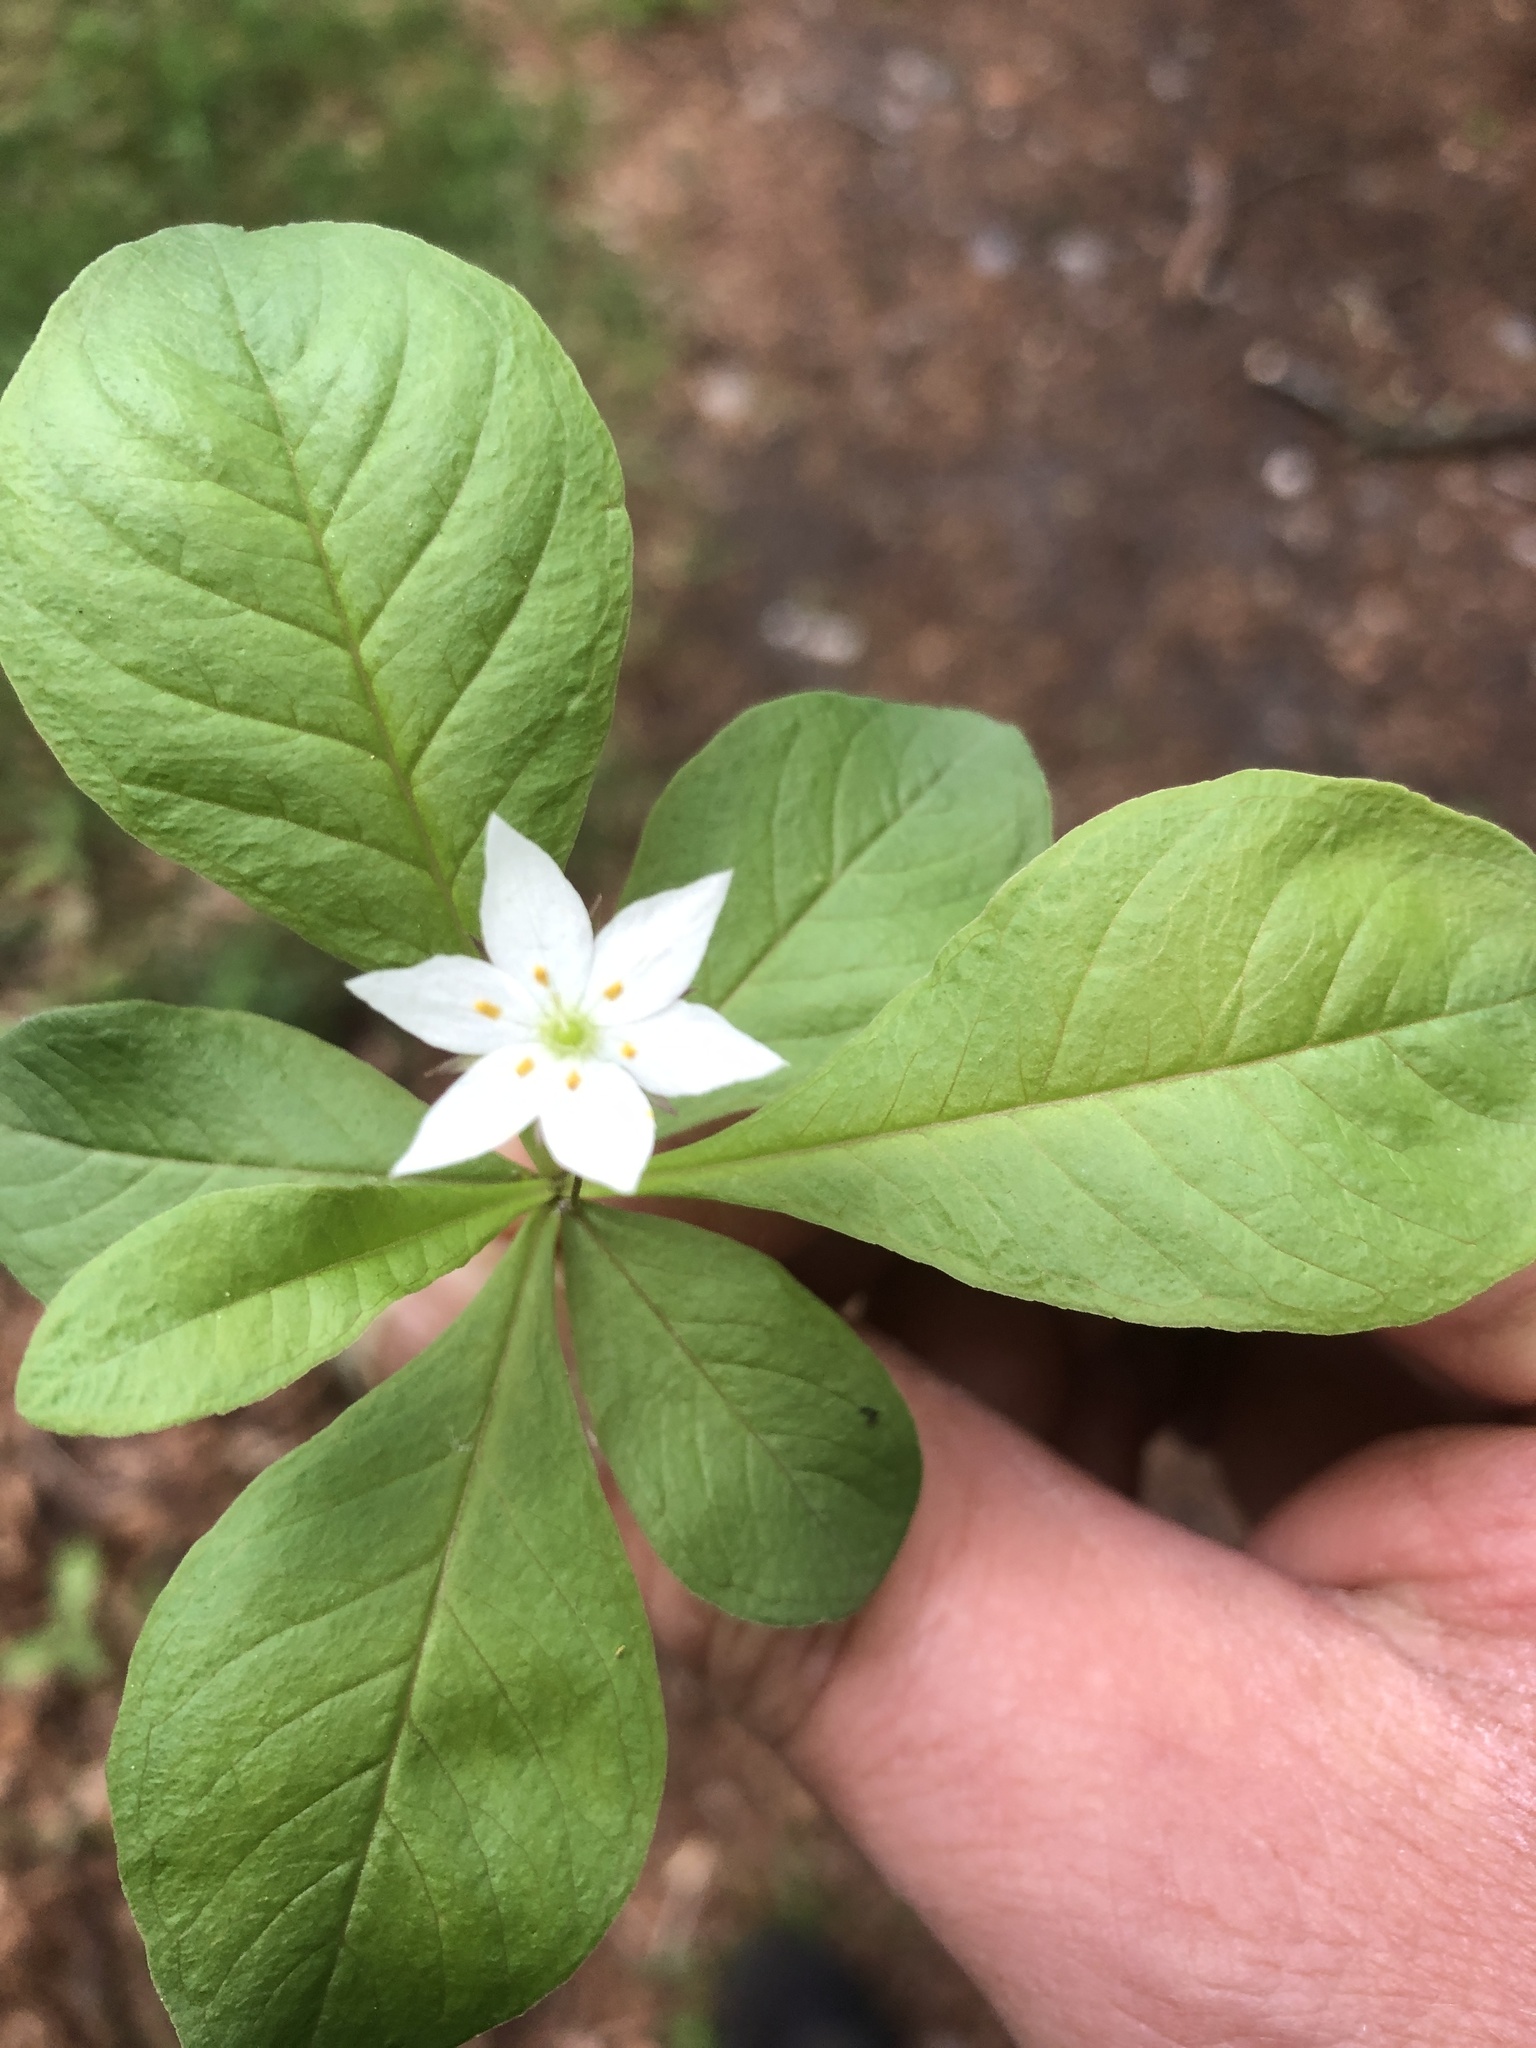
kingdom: Plantae
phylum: Tracheophyta
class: Magnoliopsida
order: Ericales
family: Primulaceae
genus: Lysimachia
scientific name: Lysimachia europaea
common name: Arctic starflower
